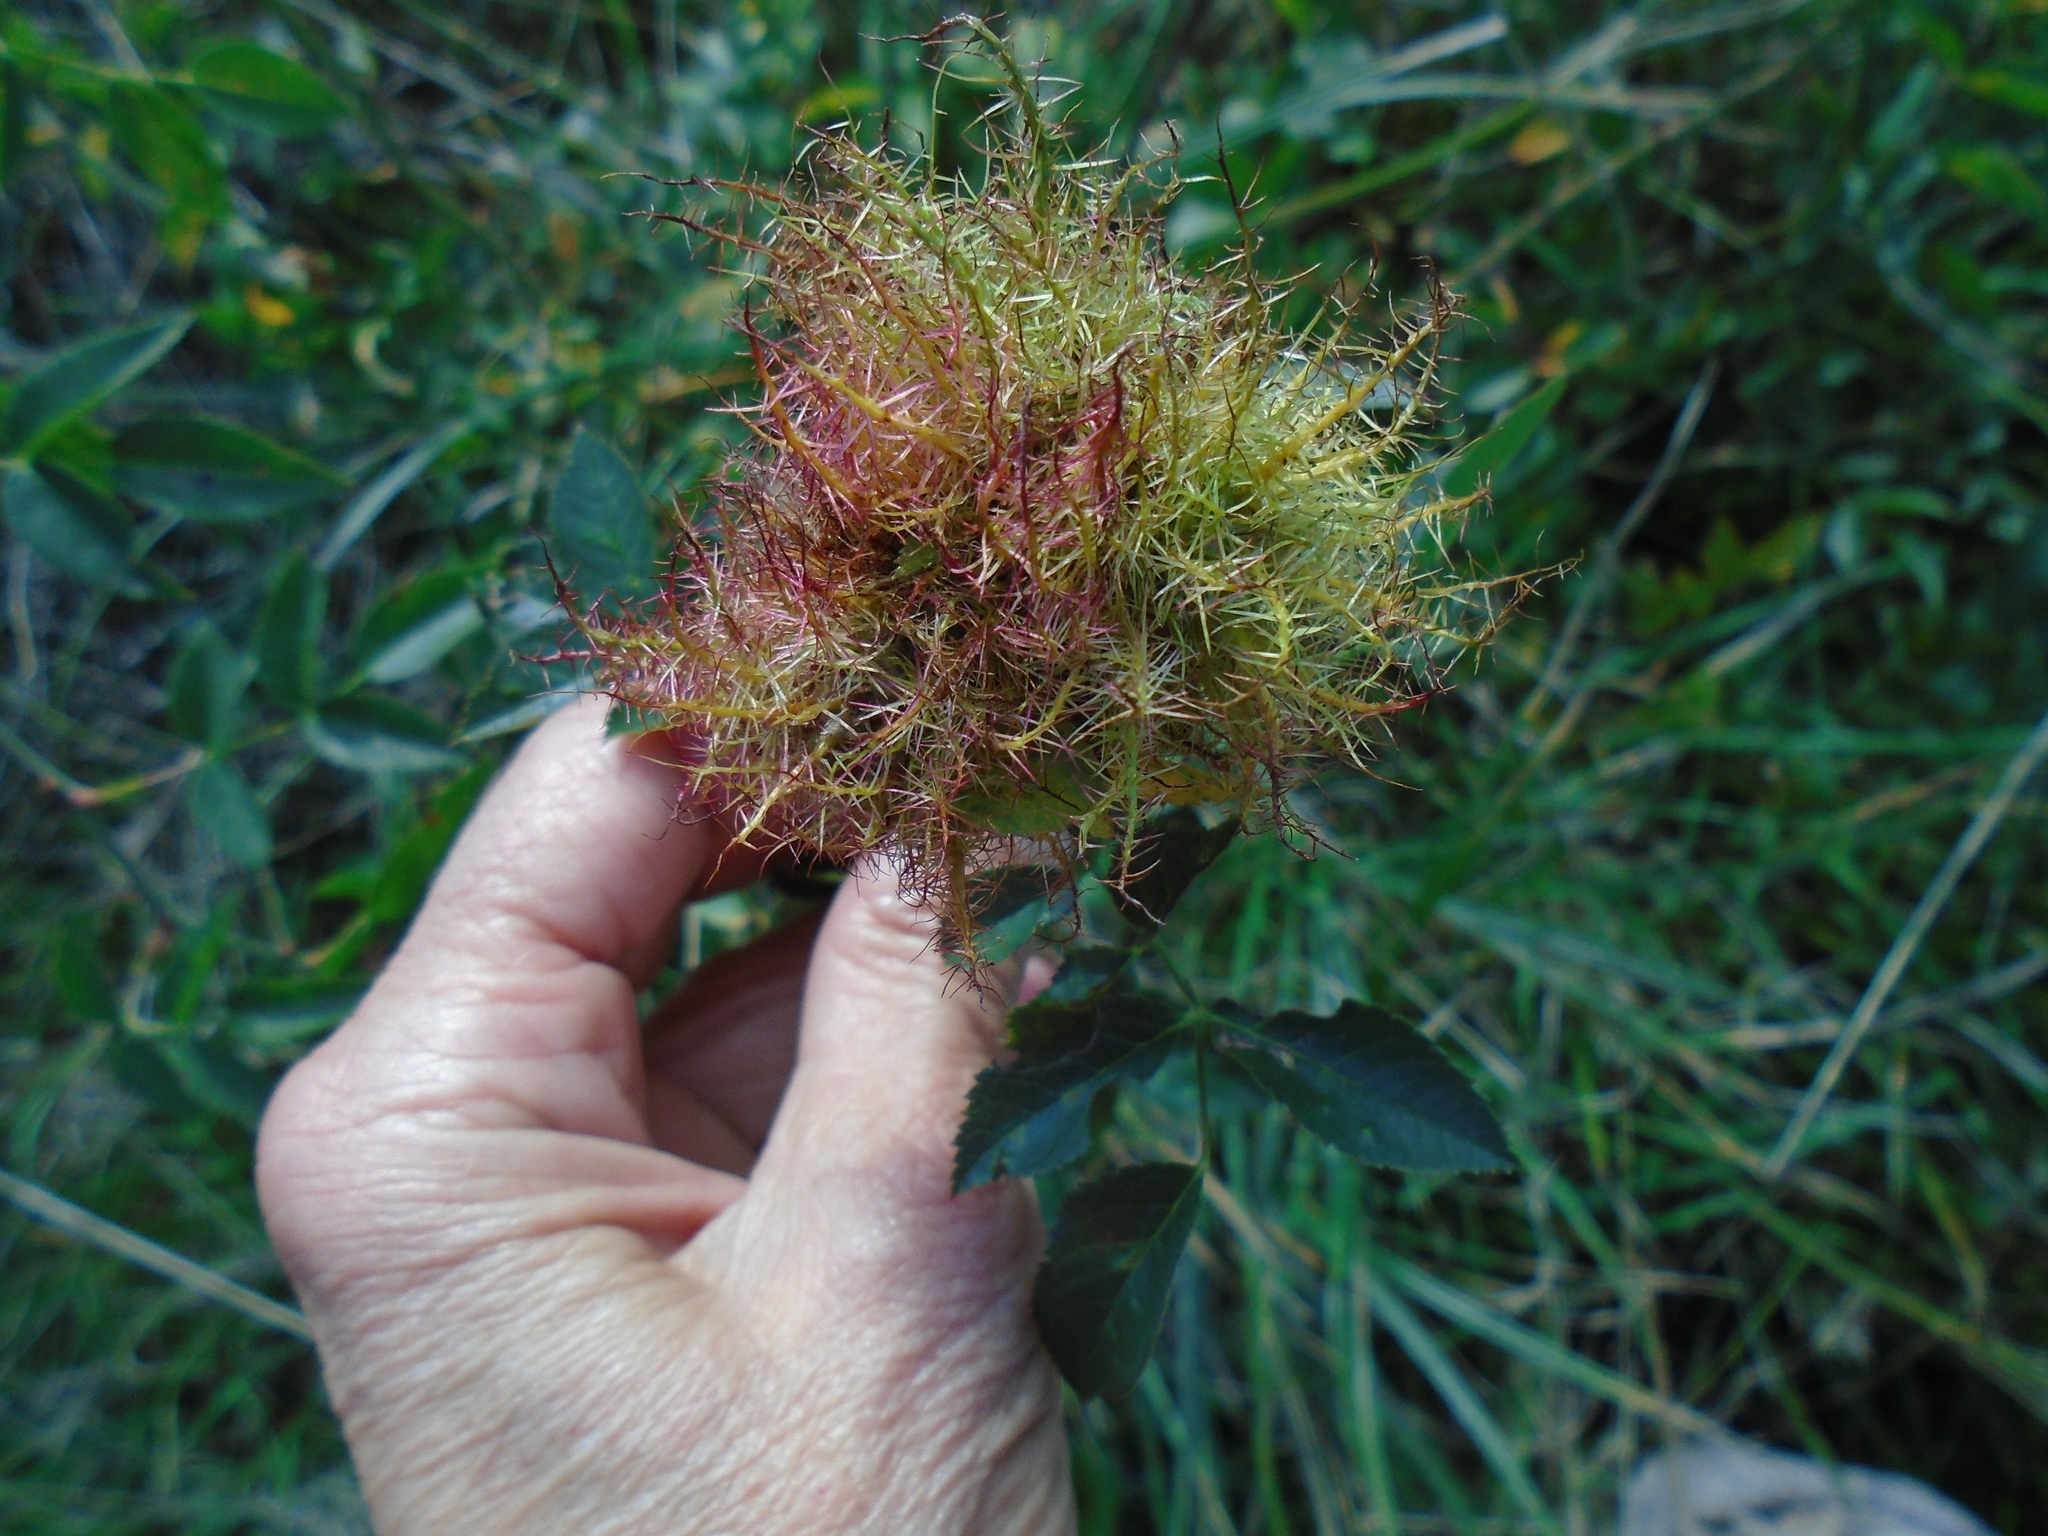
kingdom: Animalia
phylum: Arthropoda
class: Insecta
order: Hymenoptera
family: Cynipidae
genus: Diplolepis
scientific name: Diplolepis rosae
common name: Bedeguar gall
